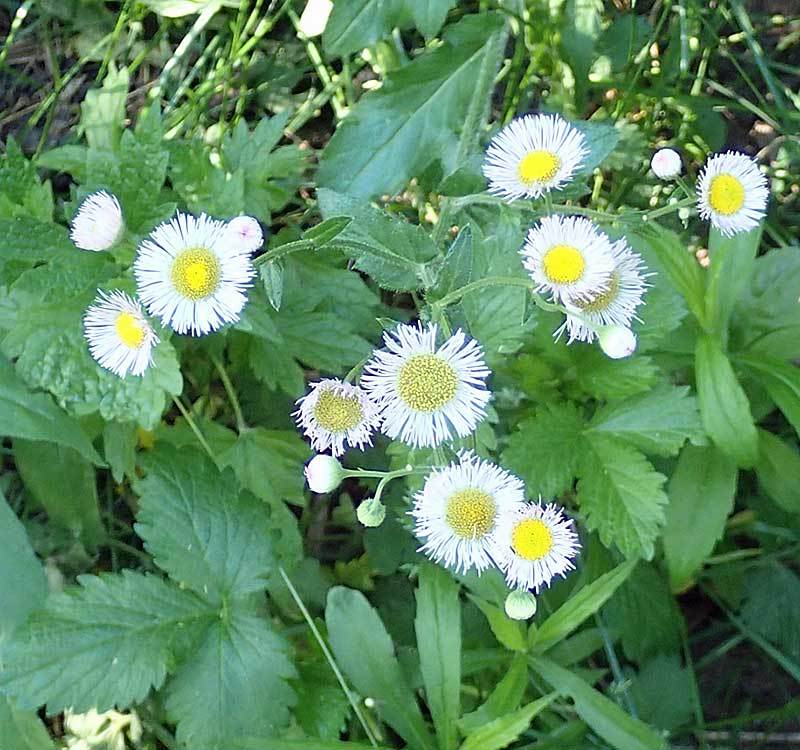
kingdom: Plantae
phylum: Tracheophyta
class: Magnoliopsida
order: Asterales
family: Asteraceae
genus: Erigeron
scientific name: Erigeron annuus
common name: Tall fleabane
